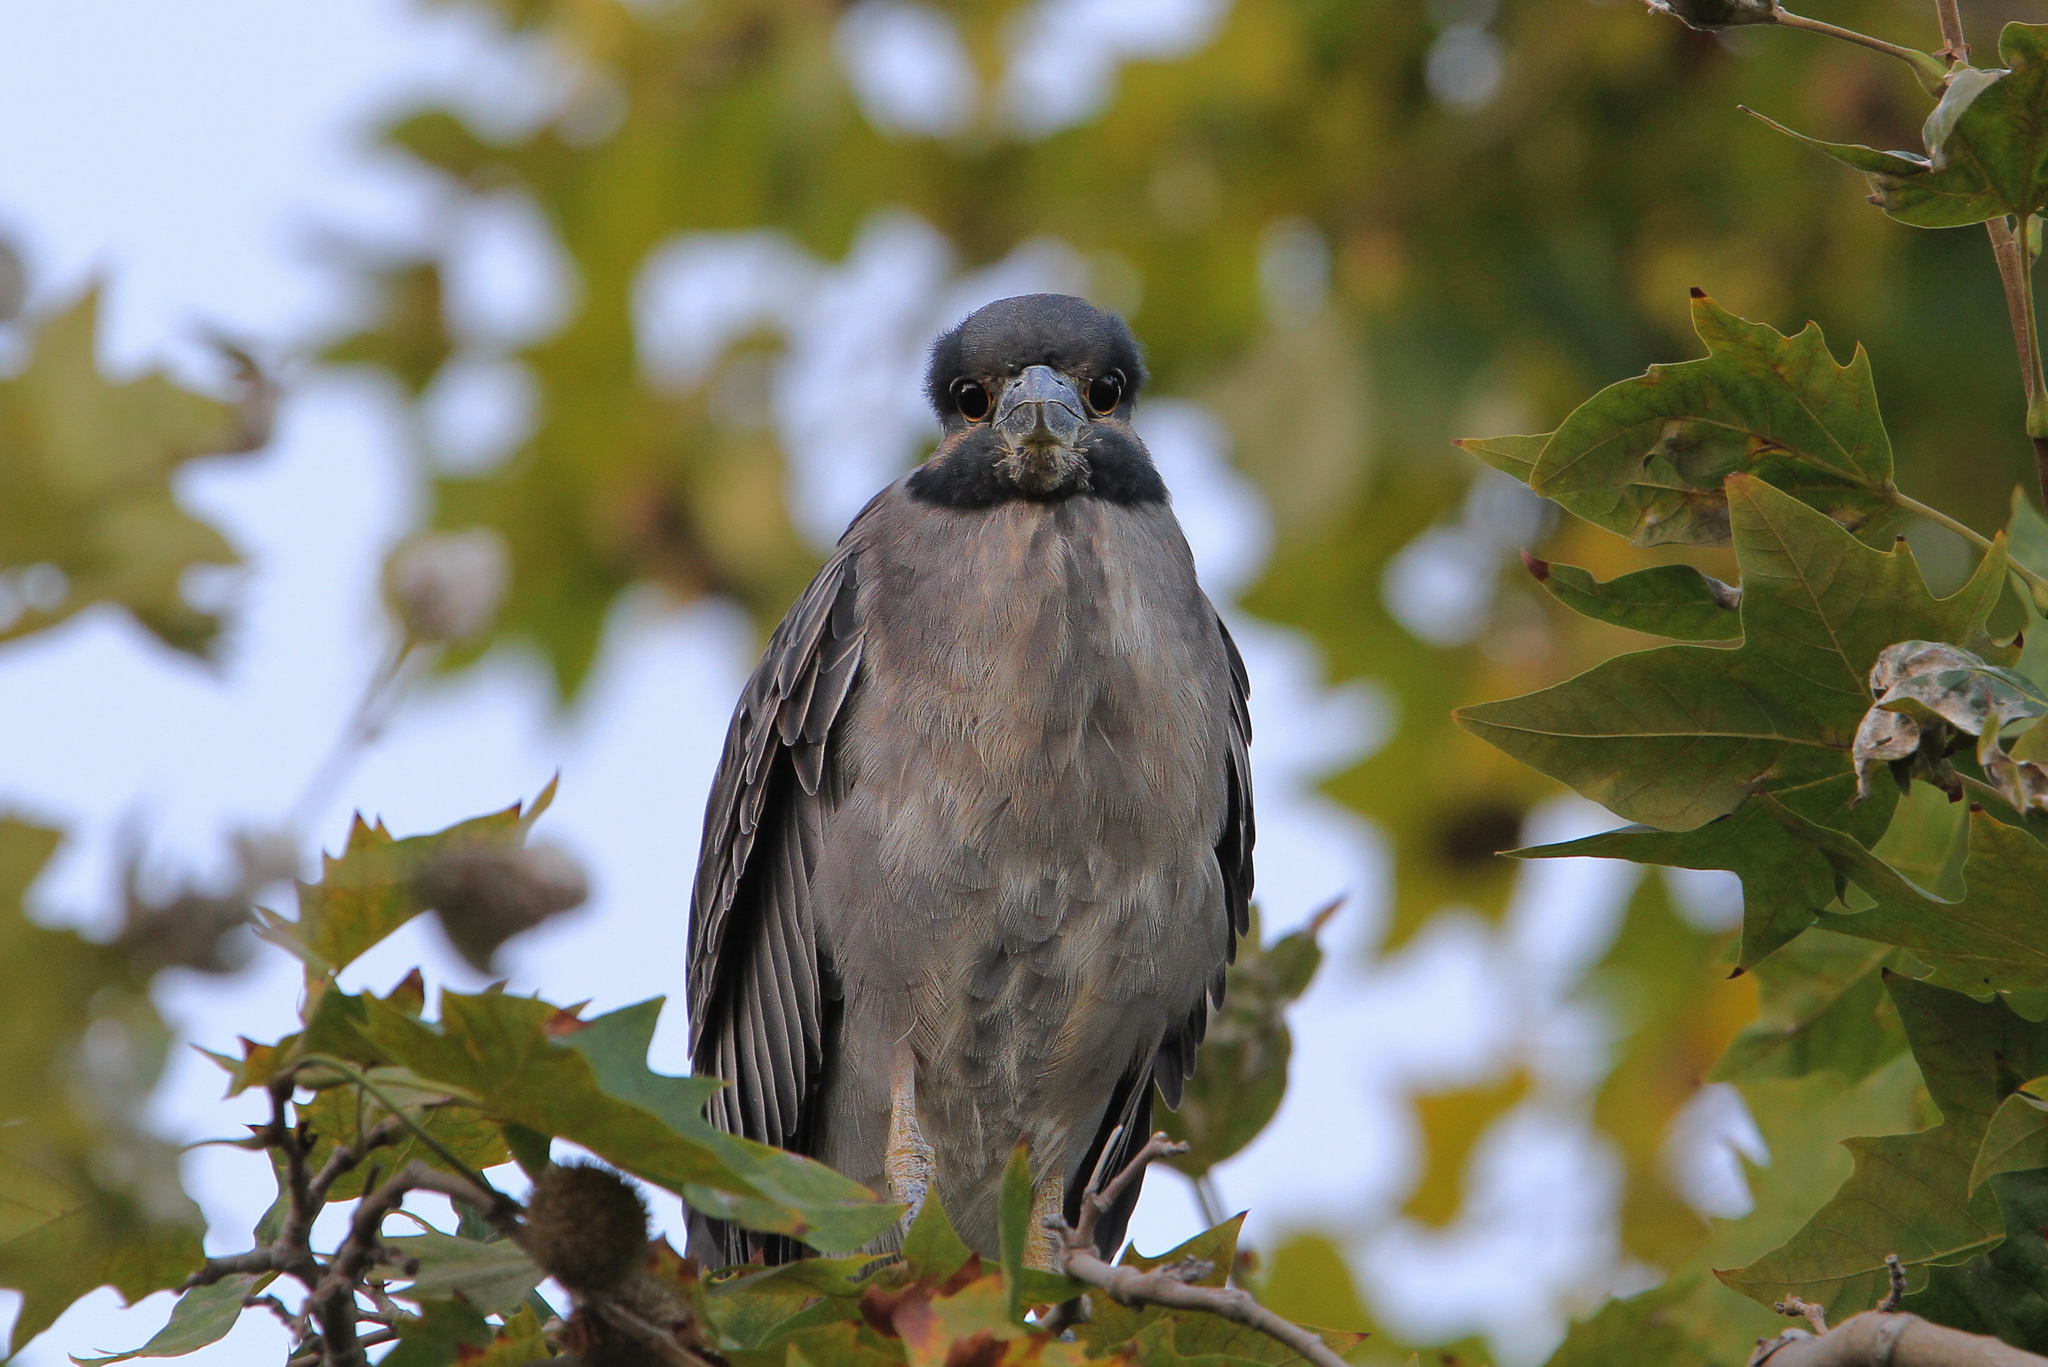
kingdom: Animalia
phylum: Chordata
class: Aves
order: Pelecaniformes
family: Ardeidae
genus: Nyctanassa
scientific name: Nyctanassa violacea
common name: Yellow-crowned night heron
